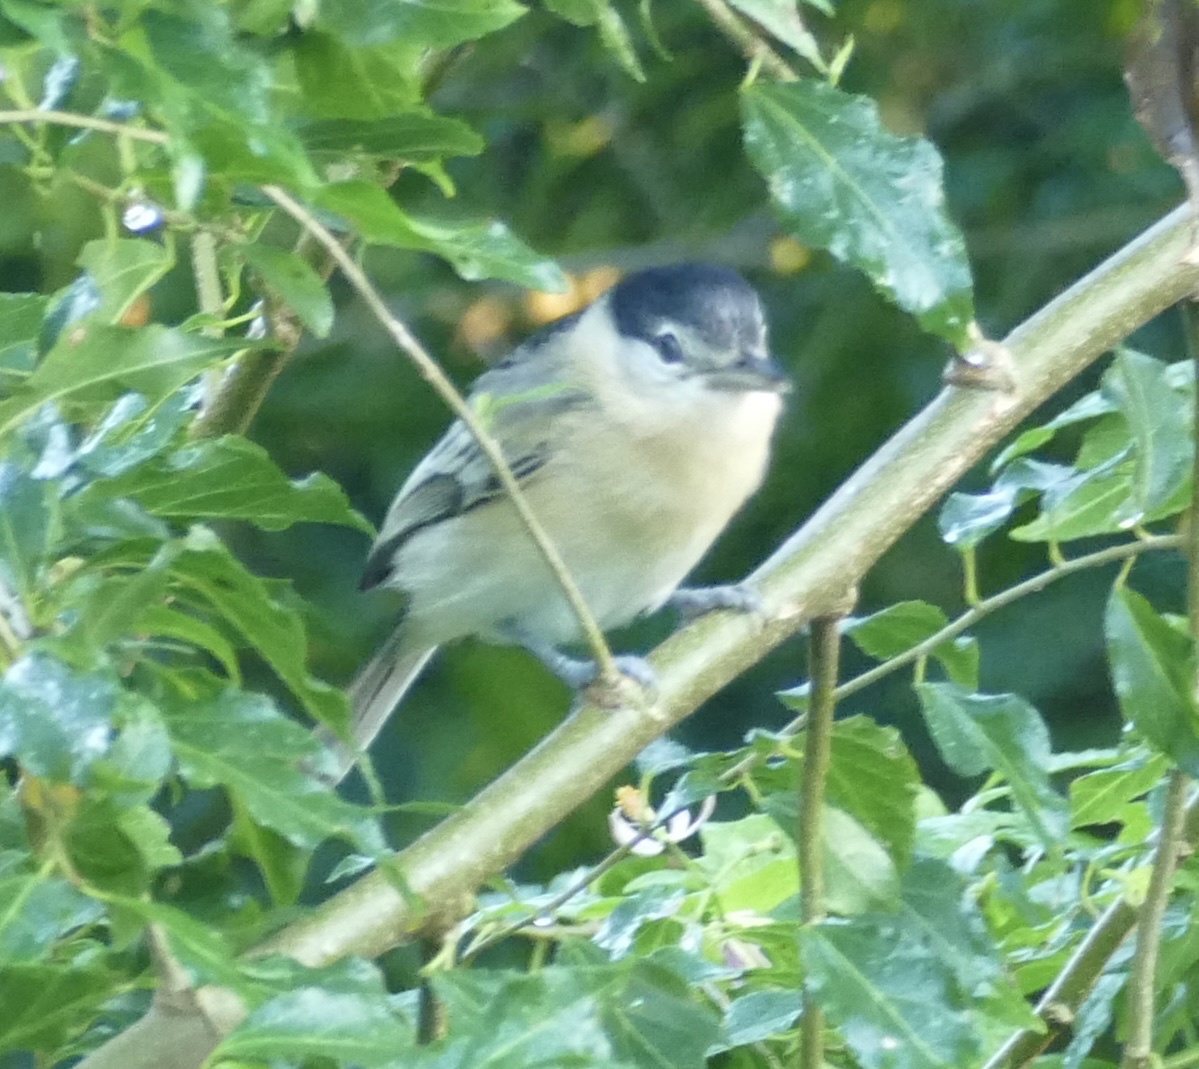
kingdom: Animalia
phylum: Chordata
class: Aves
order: Passeriformes
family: Malaconotidae
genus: Dryoscopus
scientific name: Dryoscopus cubla
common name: Black-backed puffback
